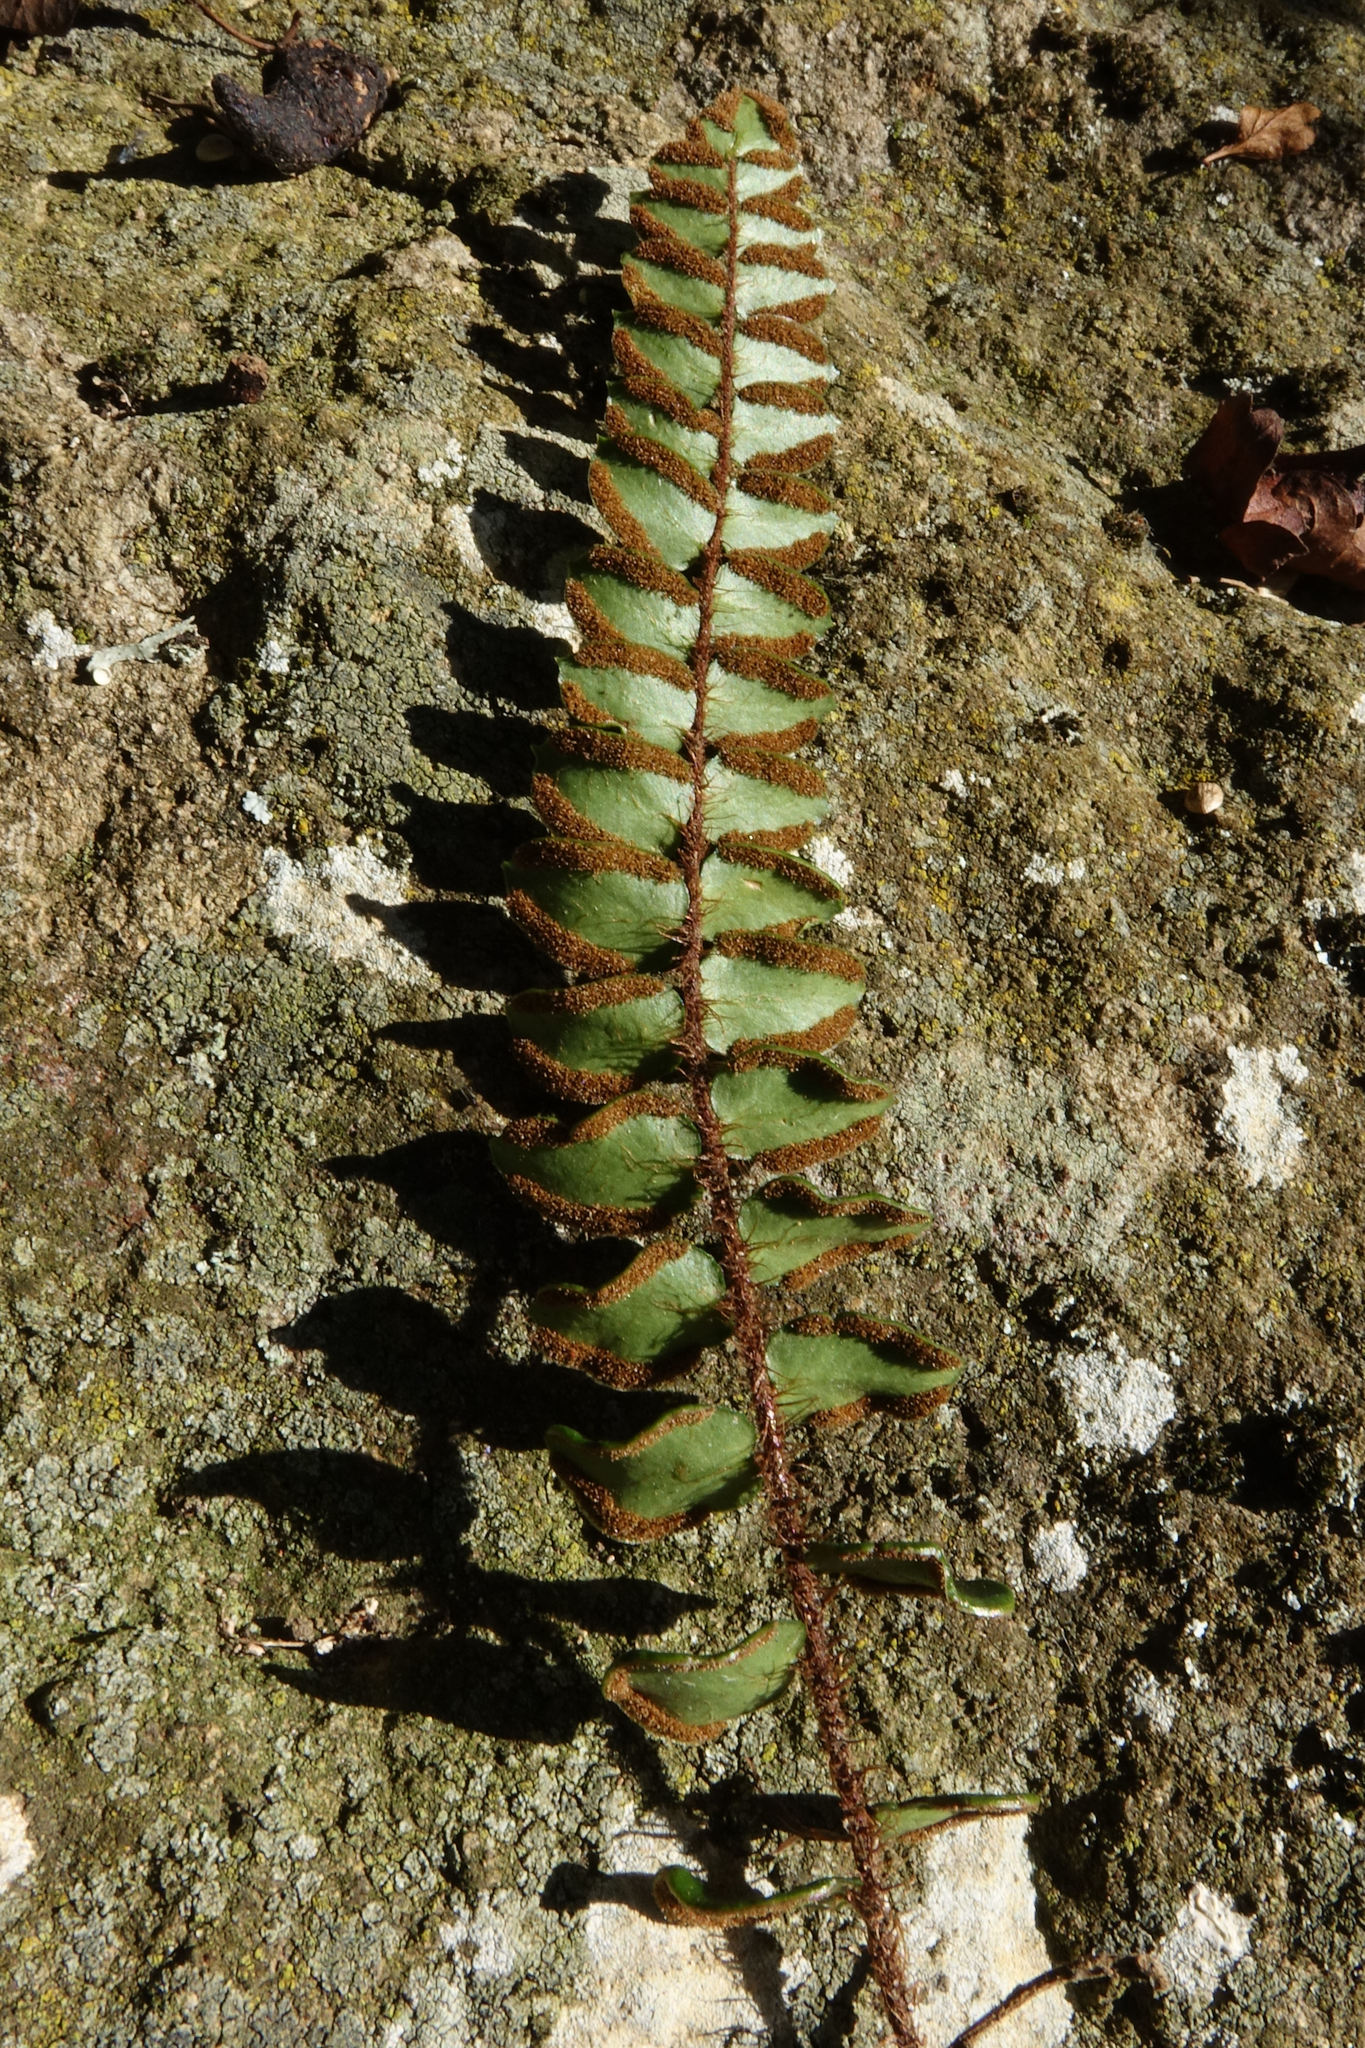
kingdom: Plantae
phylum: Tracheophyta
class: Polypodiopsida
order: Polypodiales
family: Pteridaceae
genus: Pellaea
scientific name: Pellaea rotundifolia
